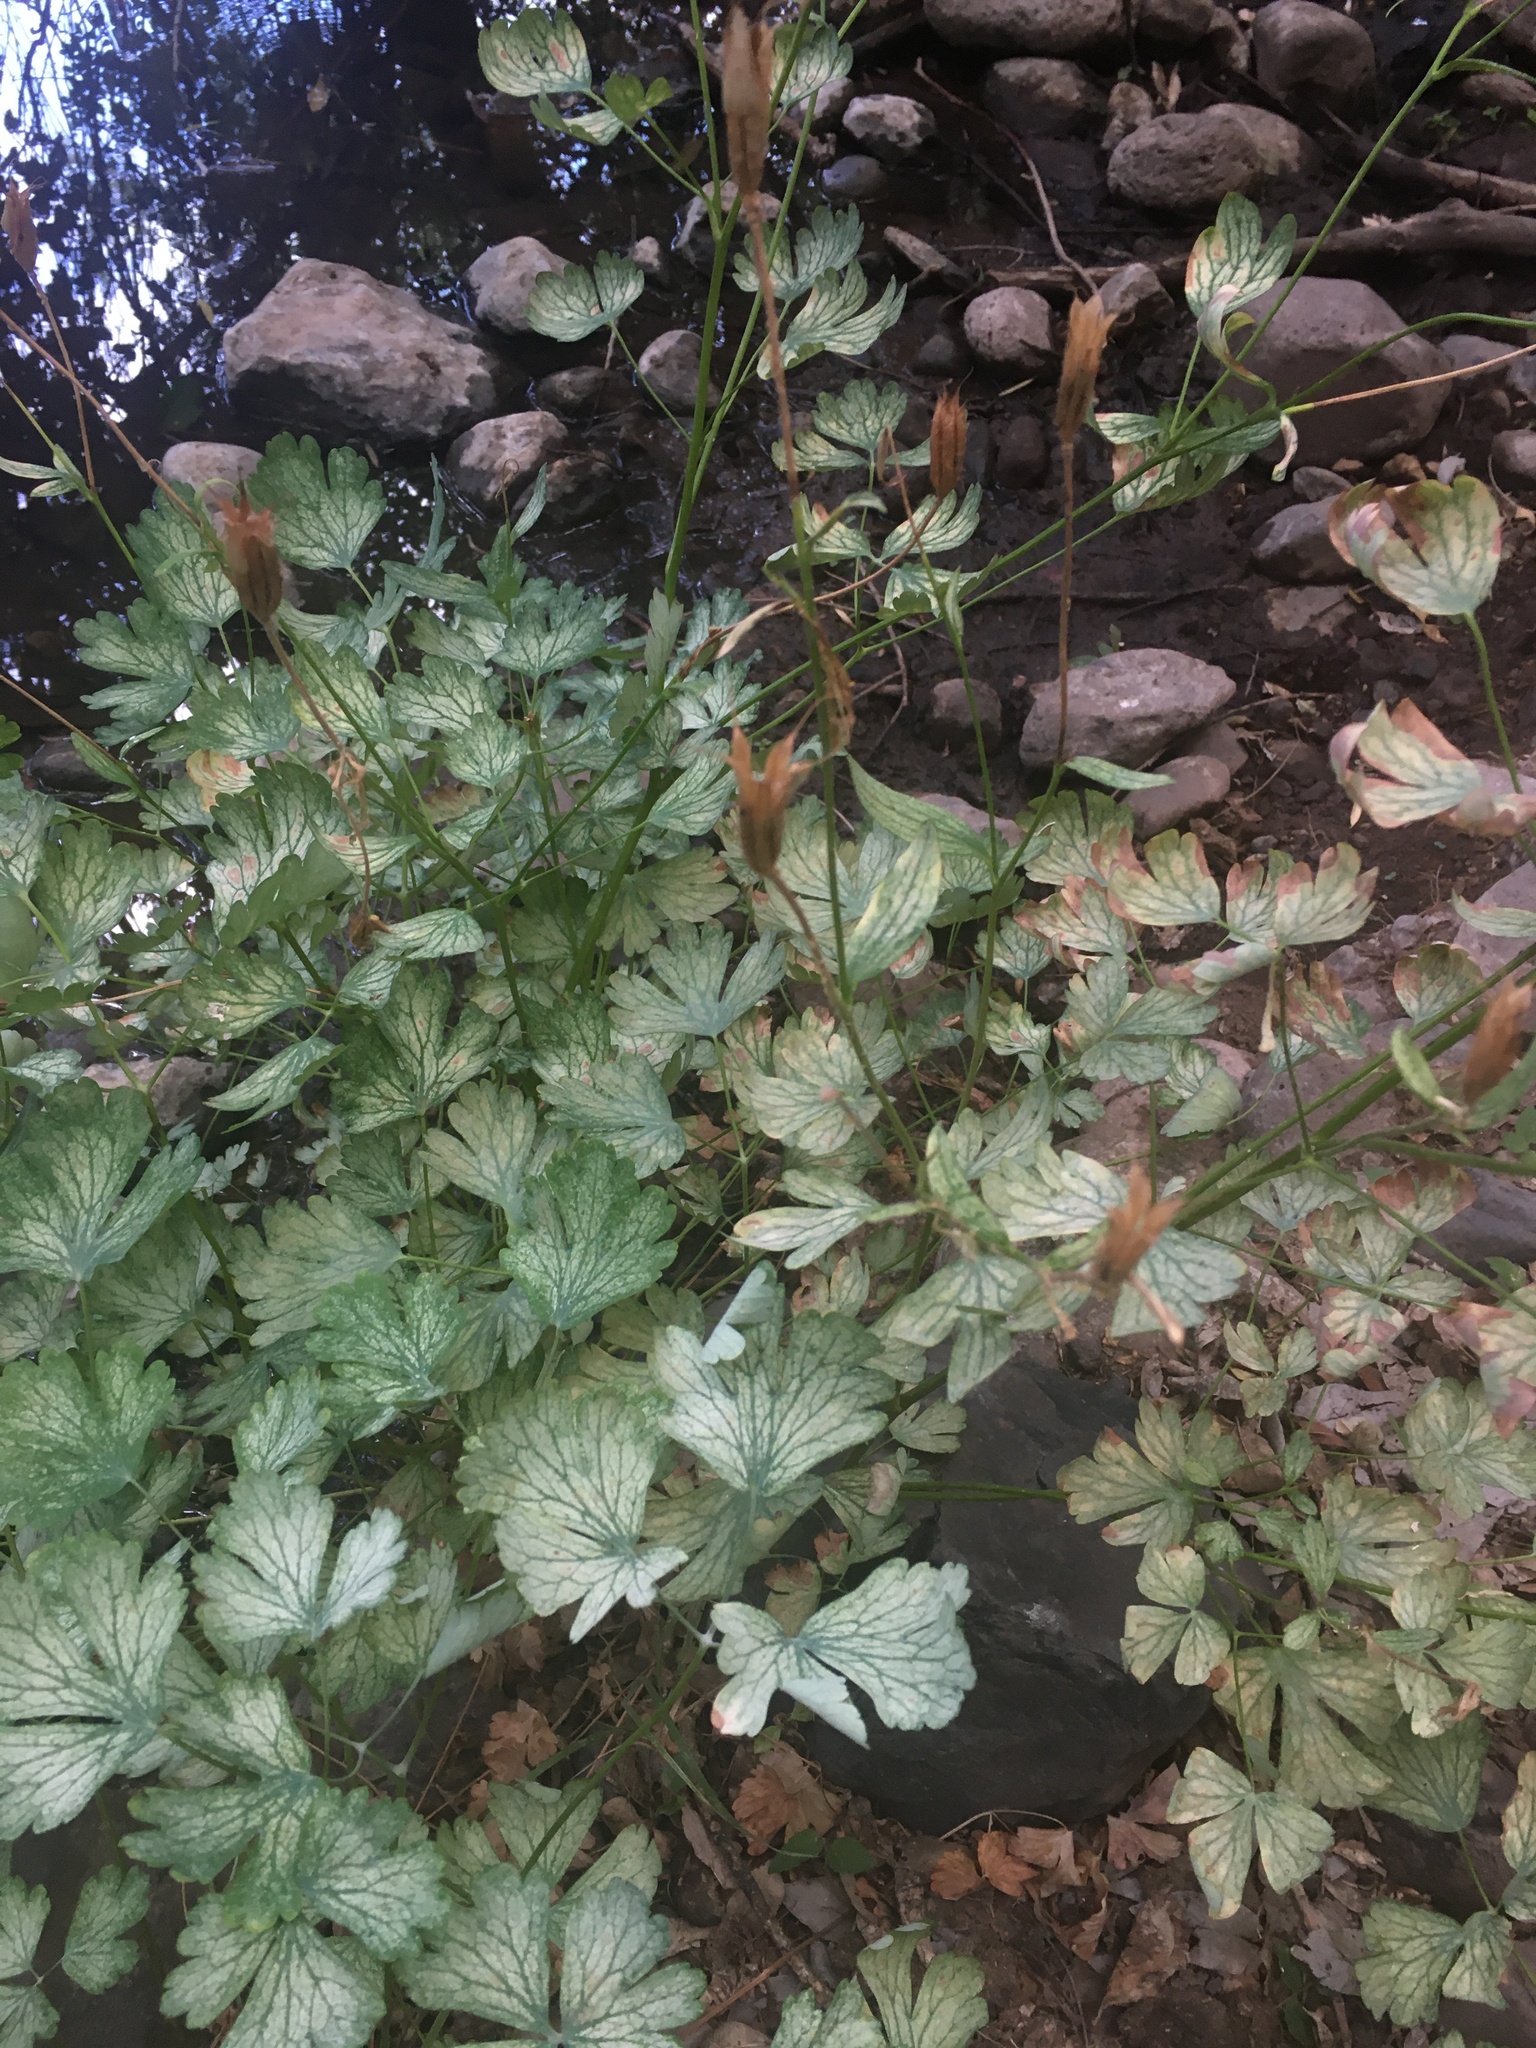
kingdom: Plantae
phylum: Tracheophyta
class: Magnoliopsida
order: Ranunculales
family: Ranunculaceae
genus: Aquilegia
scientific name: Aquilegia chrysantha
